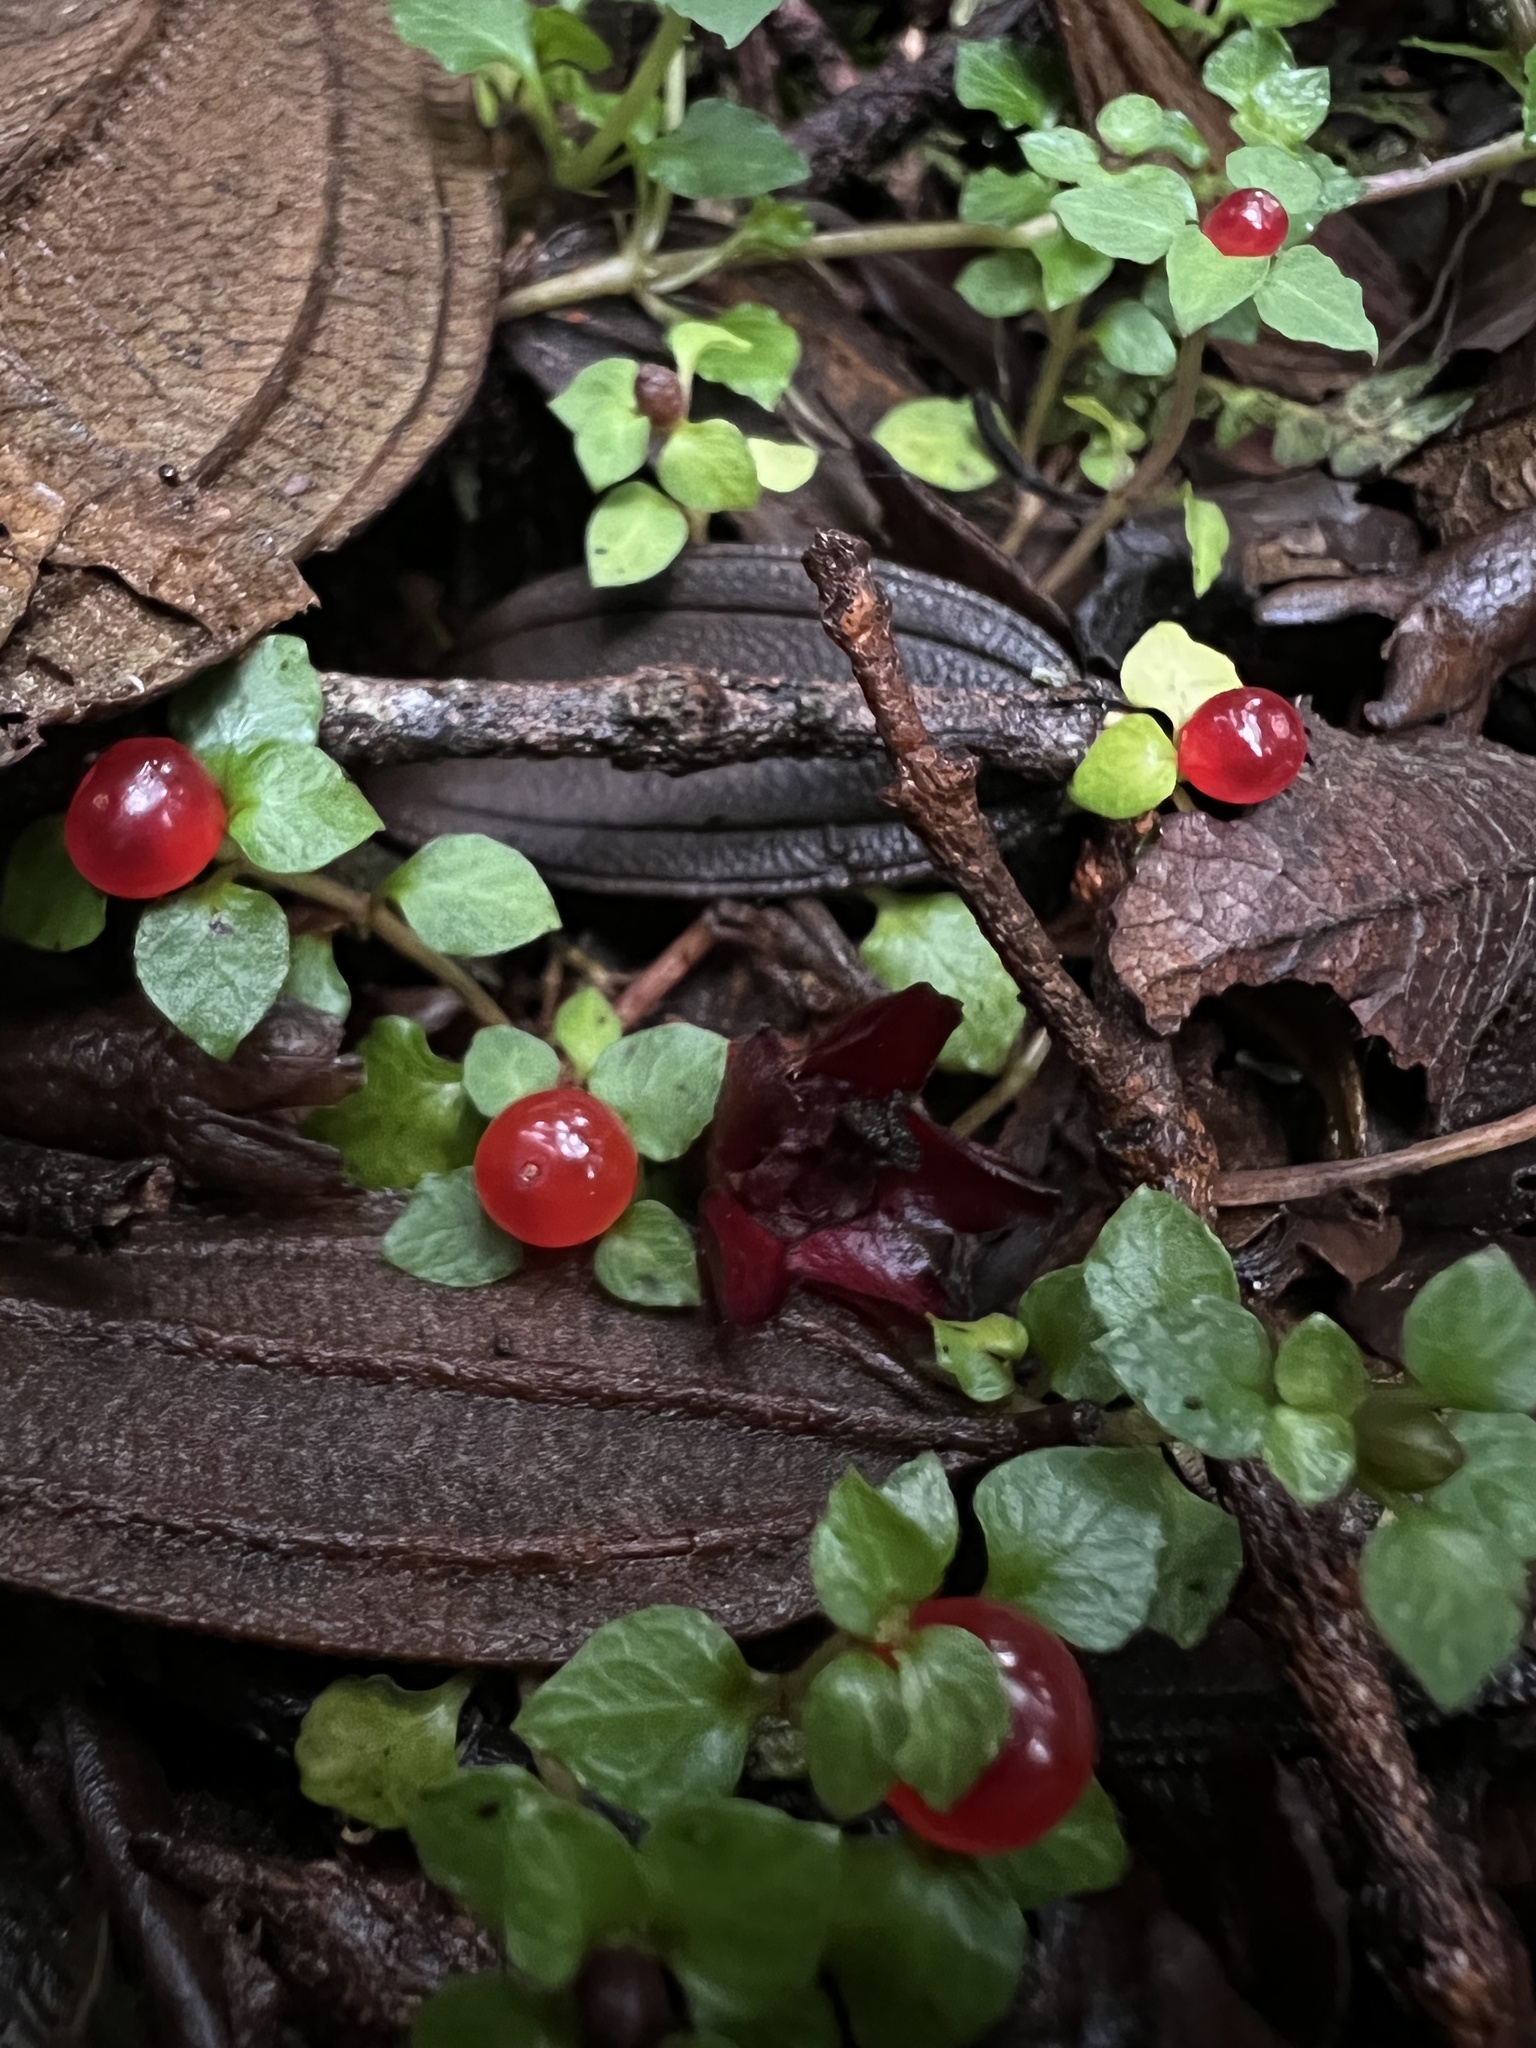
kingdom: Plantae
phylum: Tracheophyta
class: Magnoliopsida
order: Gentianales
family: Rubiaceae
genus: Nertera
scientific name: Nertera granadensis
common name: Beadplant
